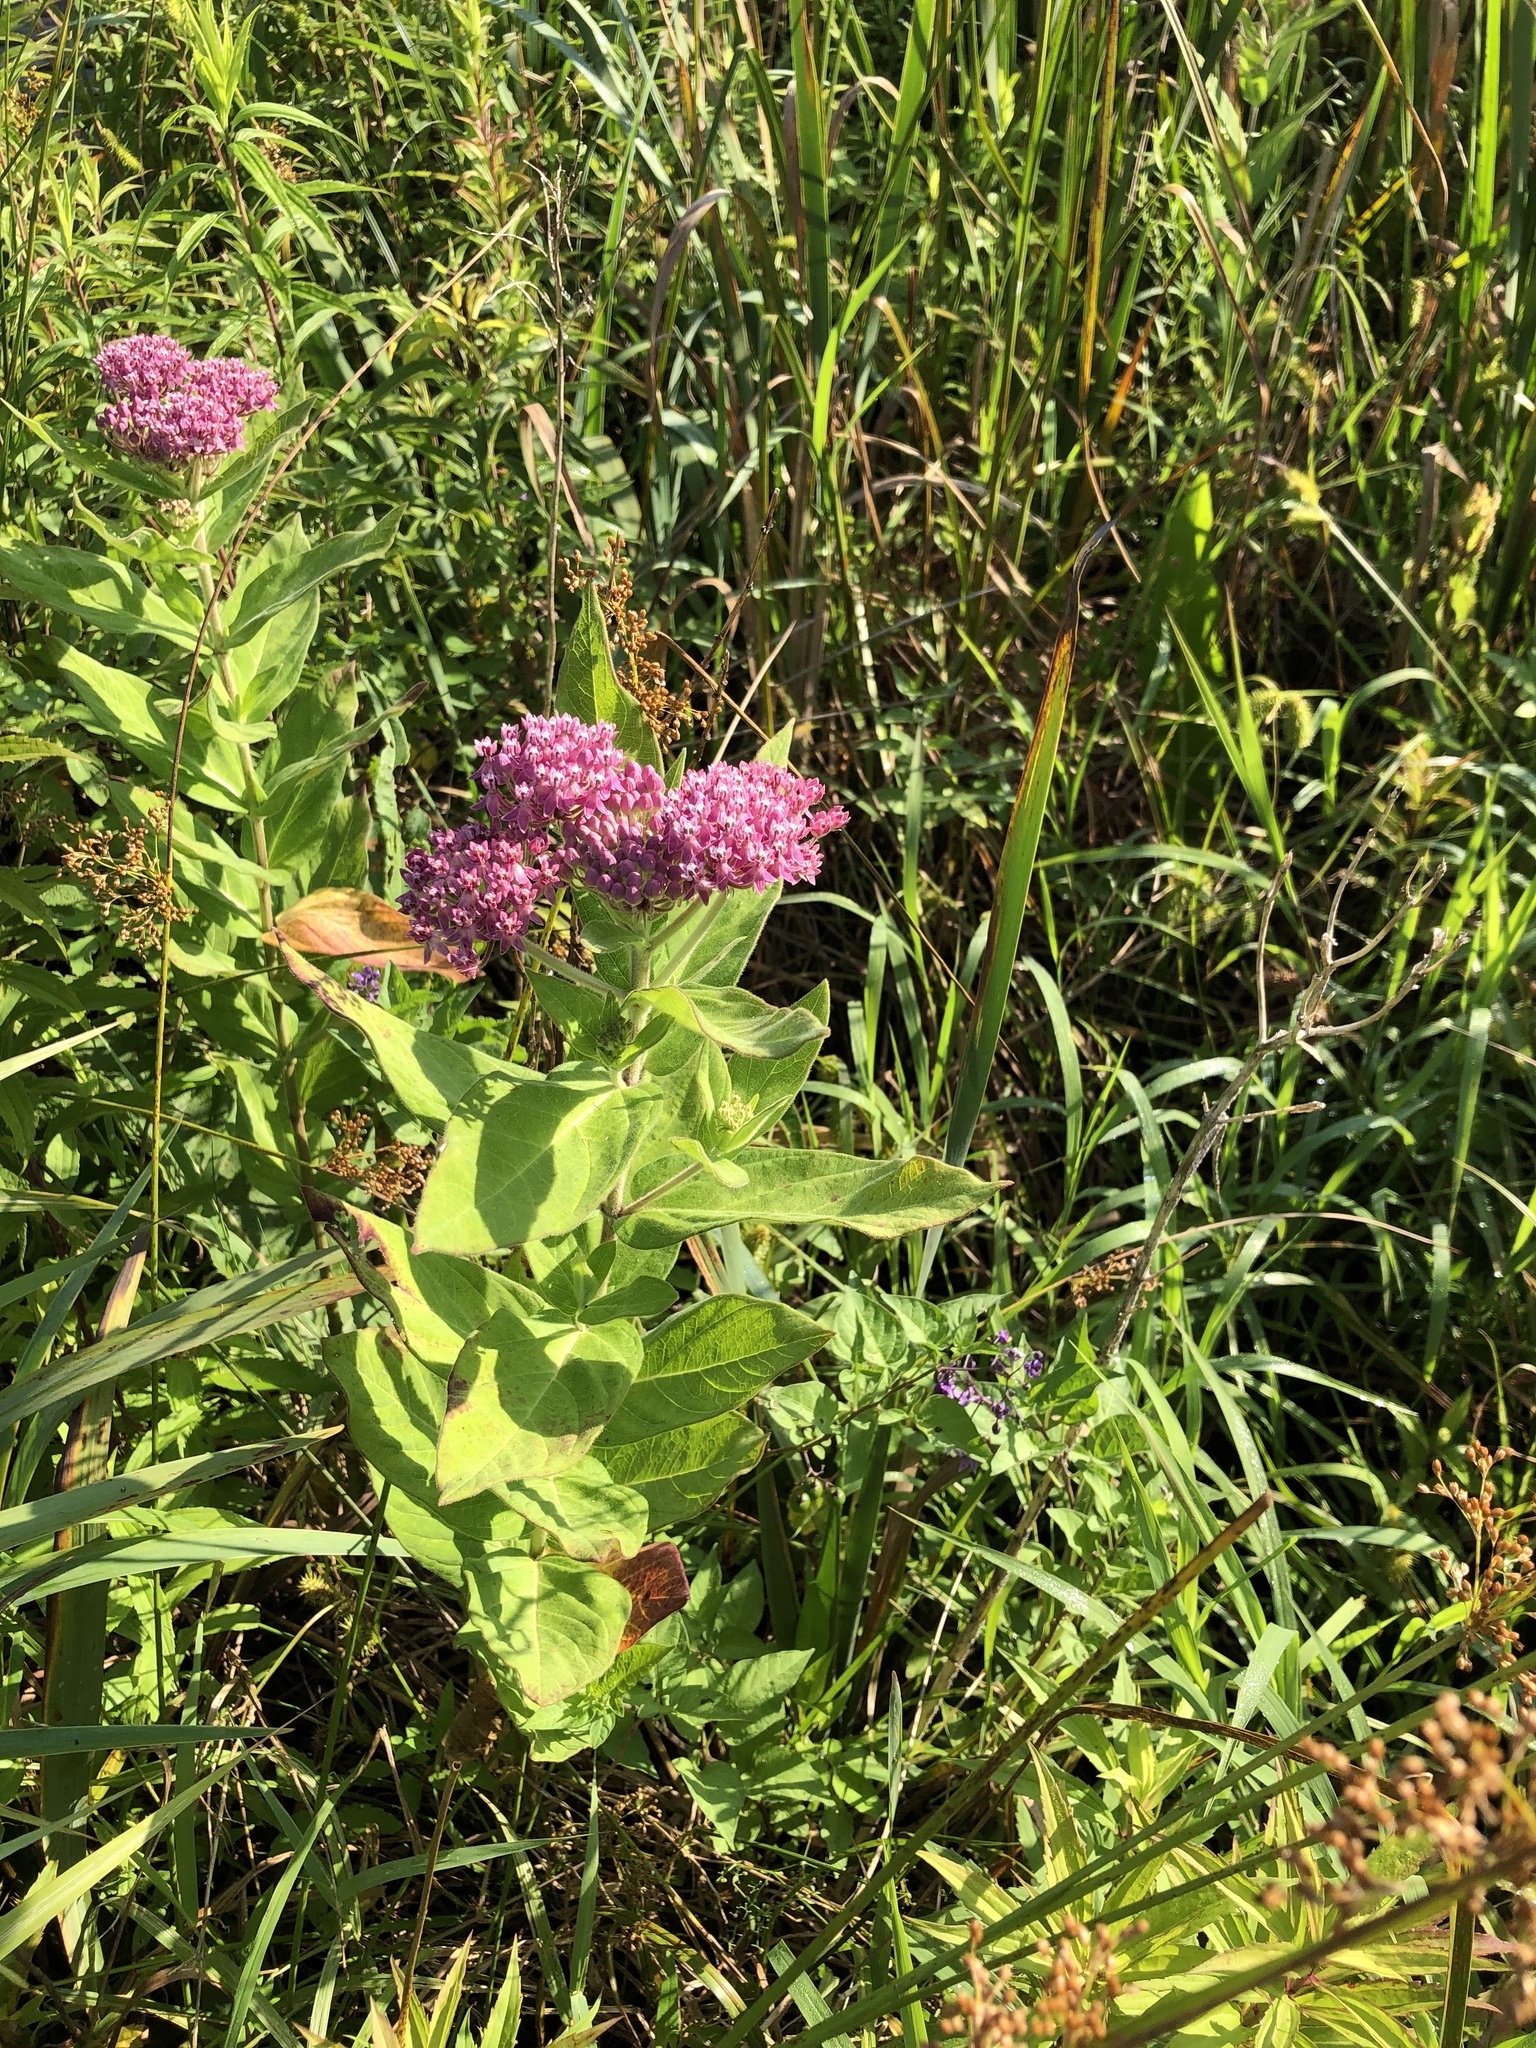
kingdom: Plantae
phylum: Tracheophyta
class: Magnoliopsida
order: Gentianales
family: Apocynaceae
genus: Asclepias
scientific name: Asclepias incarnata
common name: Swamp milkweed
